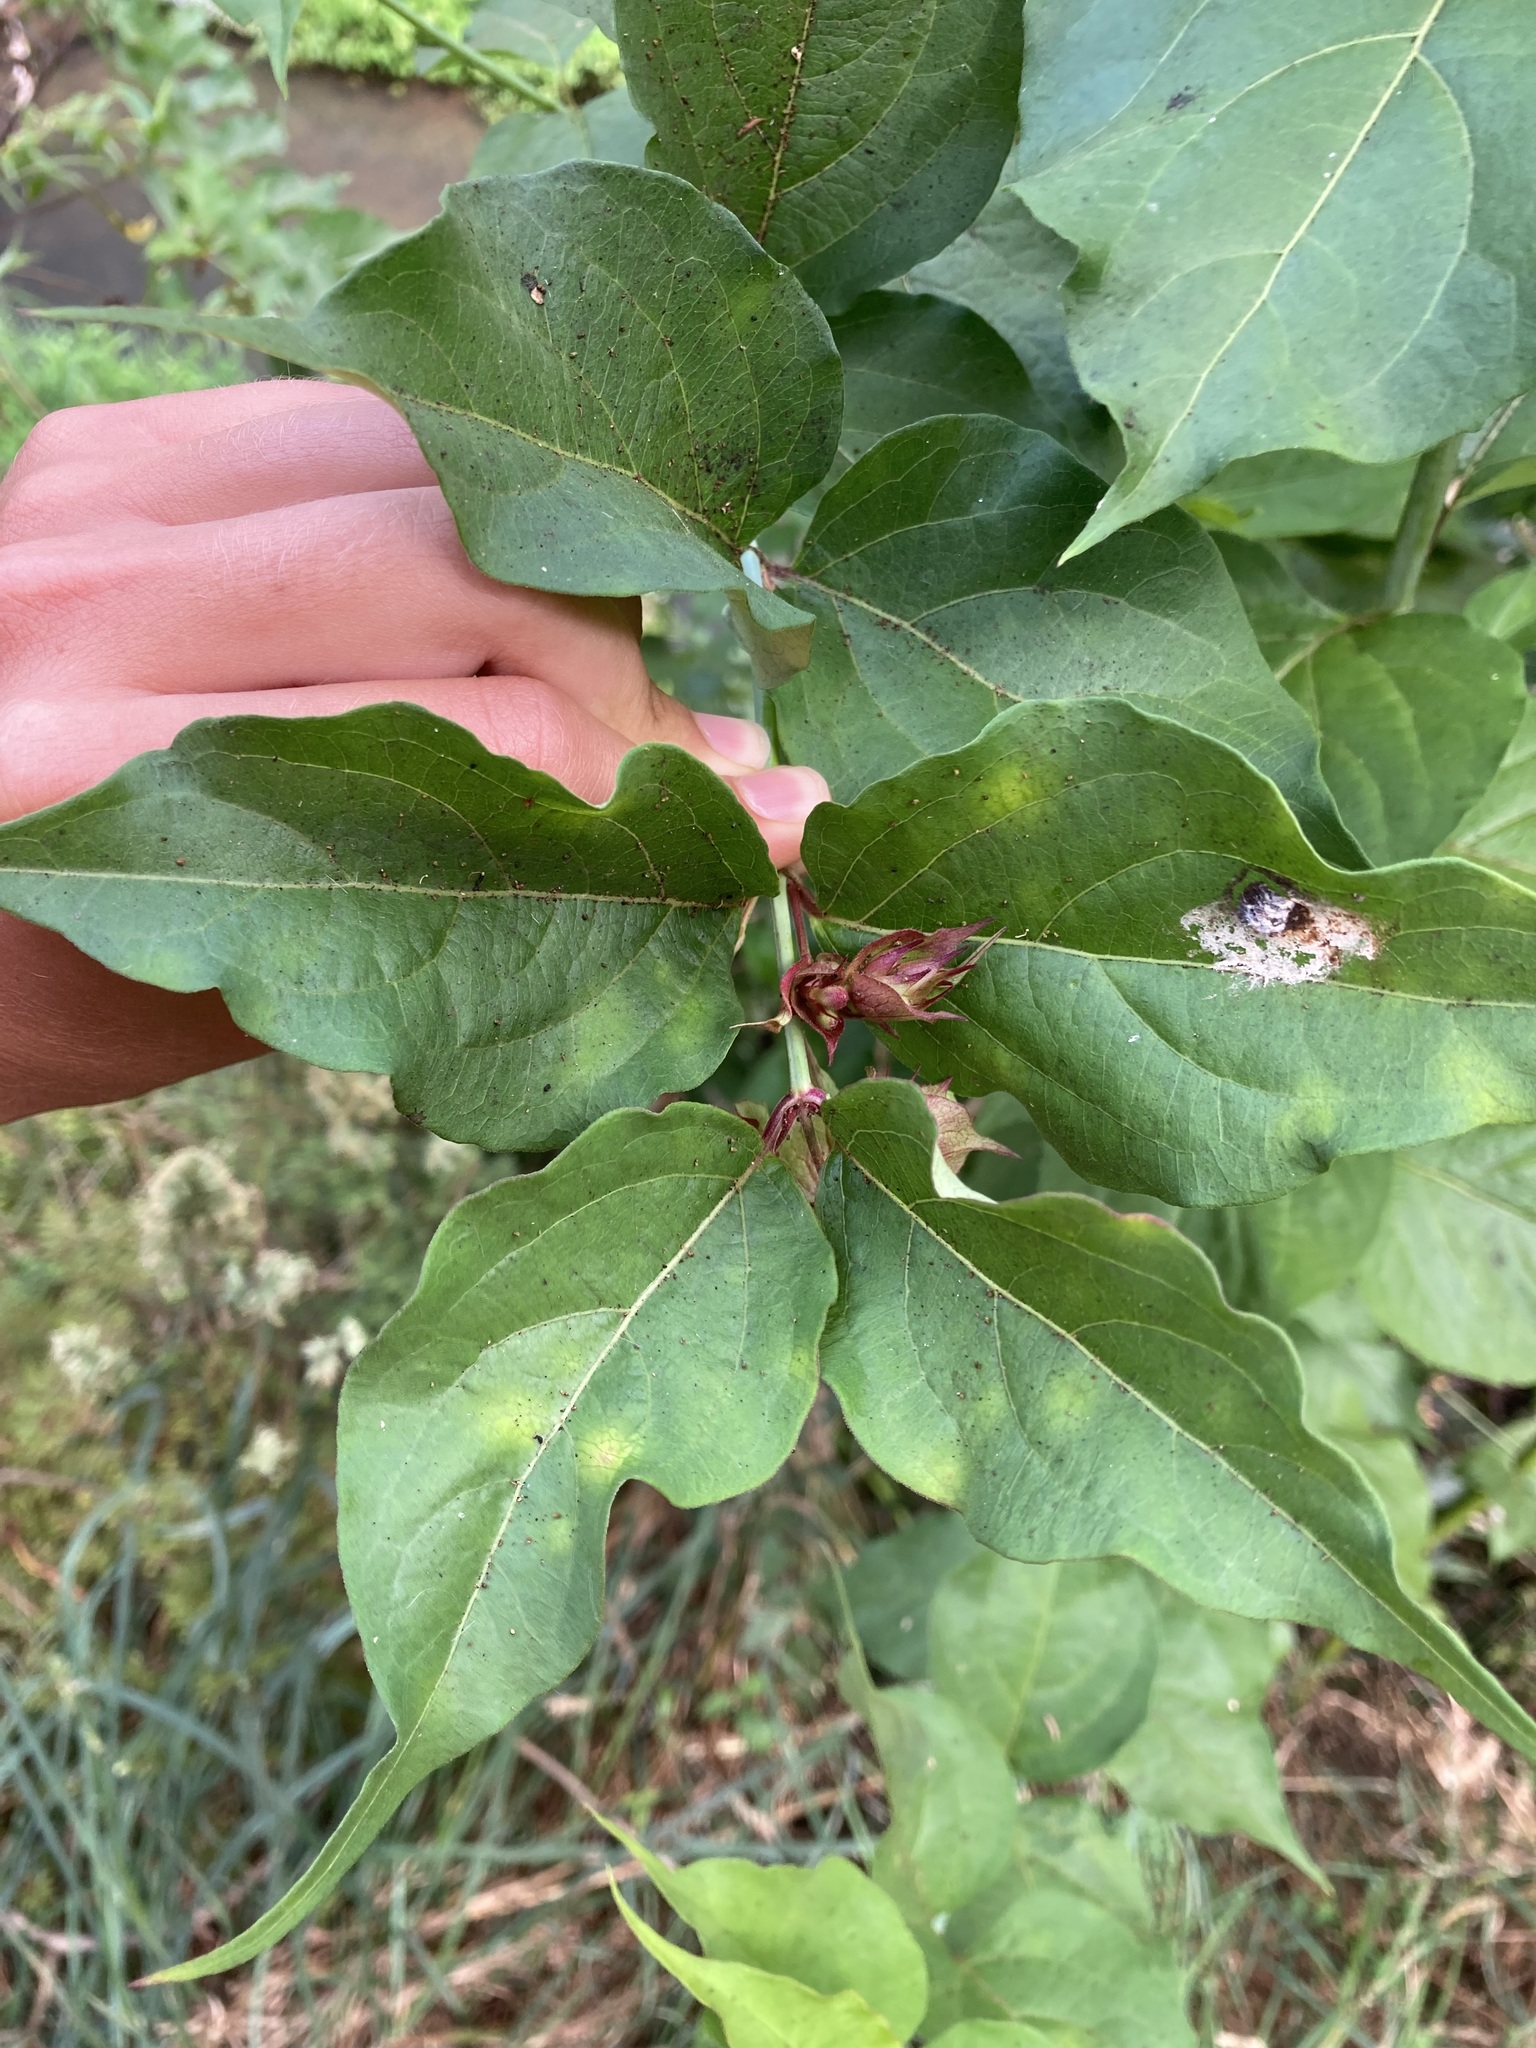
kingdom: Plantae
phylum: Tracheophyta
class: Magnoliopsida
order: Dipsacales
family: Caprifoliaceae
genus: Leycesteria
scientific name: Leycesteria formosa
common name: Himalayan honeysuckle
